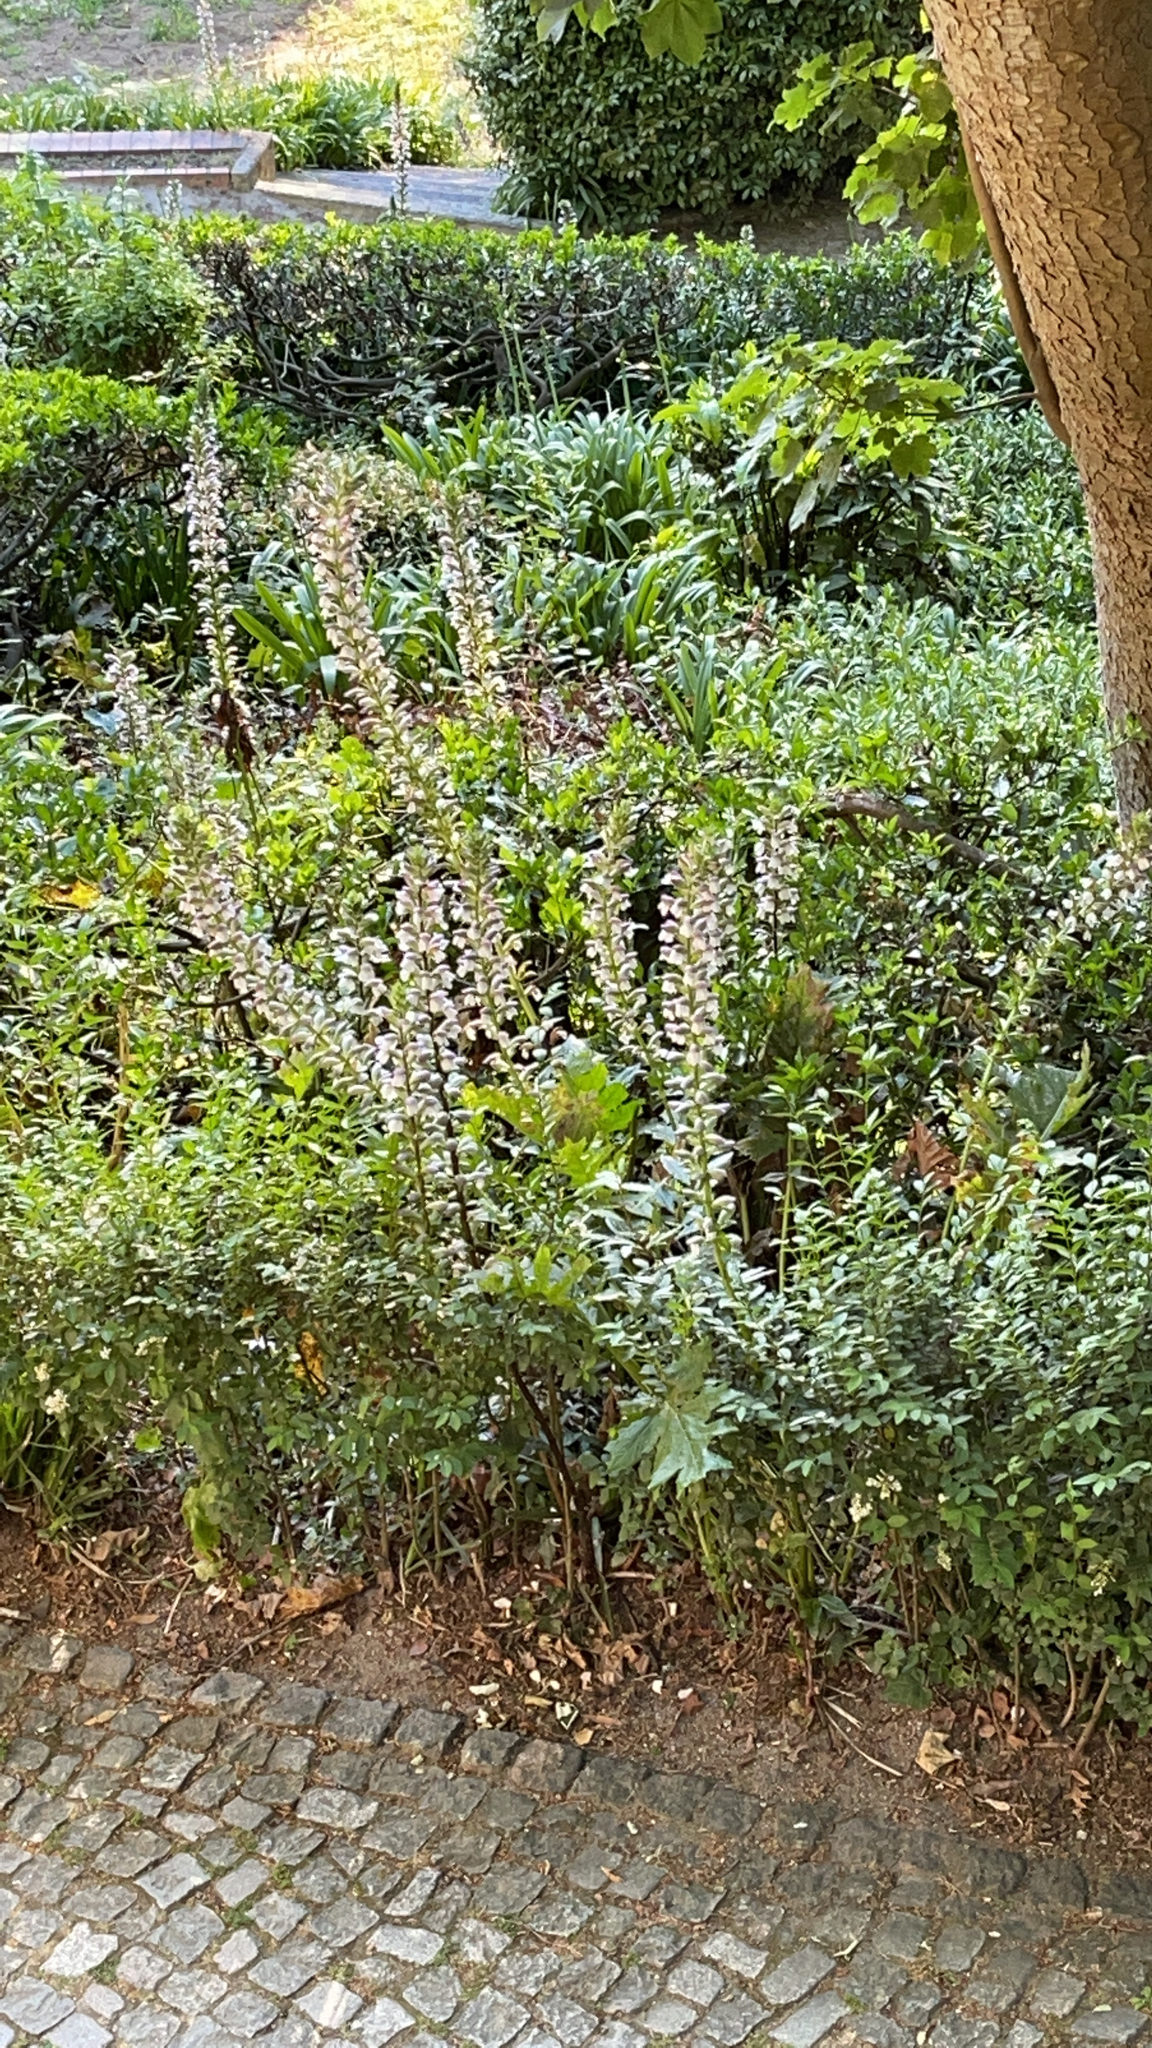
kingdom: Plantae
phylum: Tracheophyta
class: Magnoliopsida
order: Lamiales
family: Acanthaceae
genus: Acanthus
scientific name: Acanthus mollis
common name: Bear's-breech
